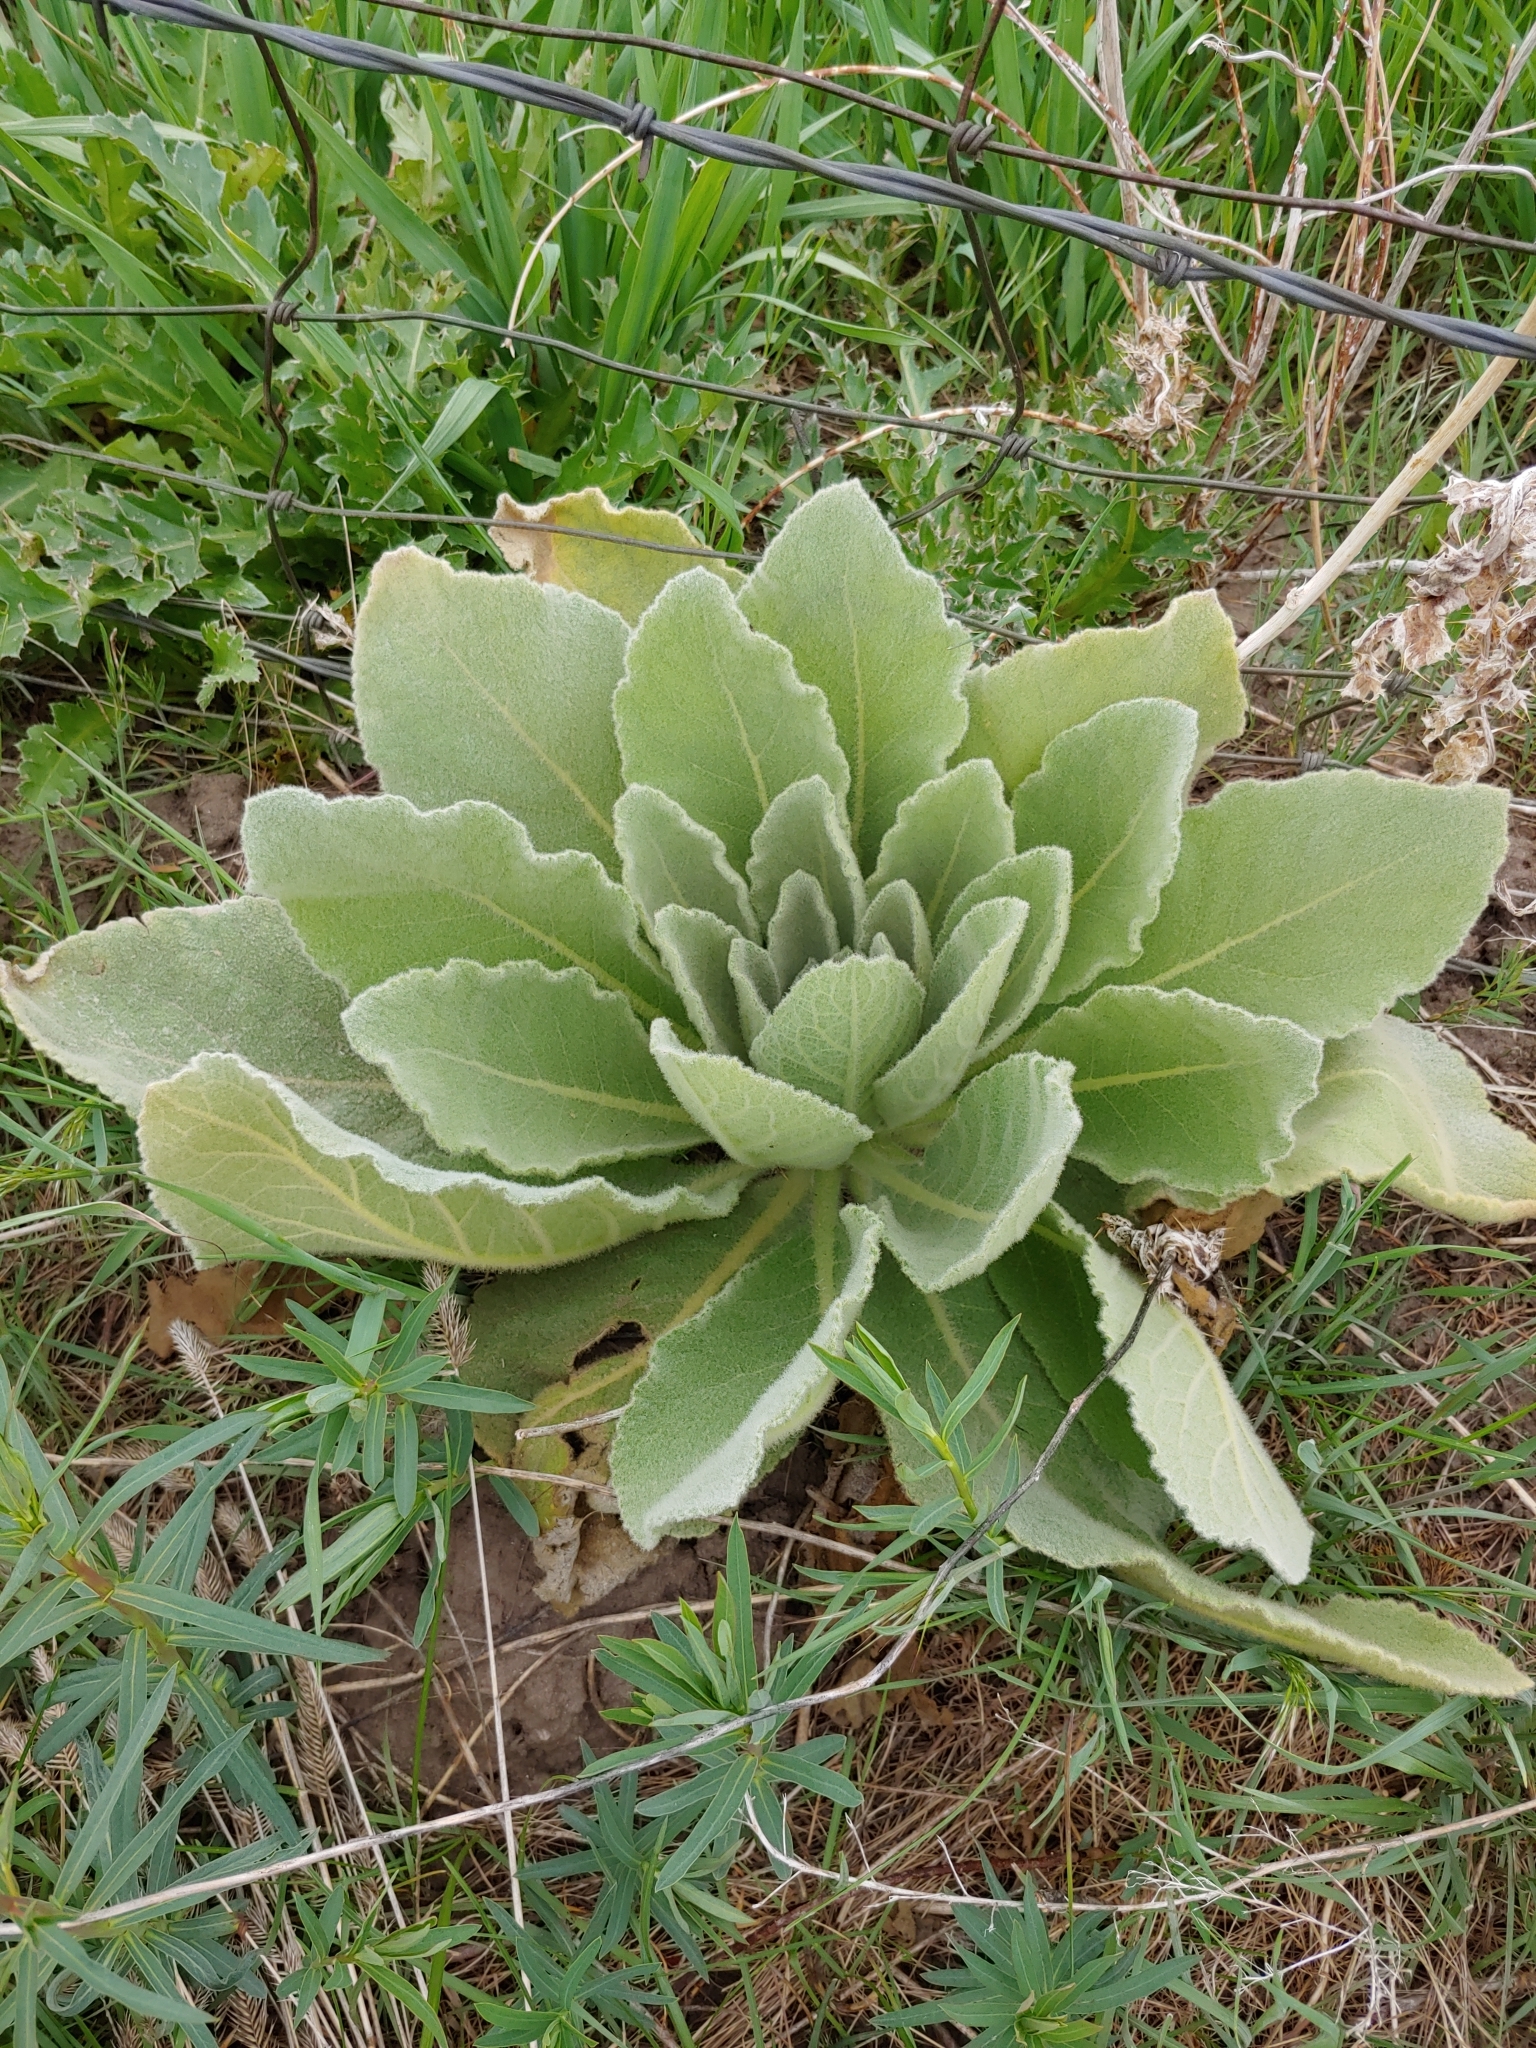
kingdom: Plantae
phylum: Tracheophyta
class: Magnoliopsida
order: Lamiales
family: Scrophulariaceae
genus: Verbascum
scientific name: Verbascum thapsus
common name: Common mullein
